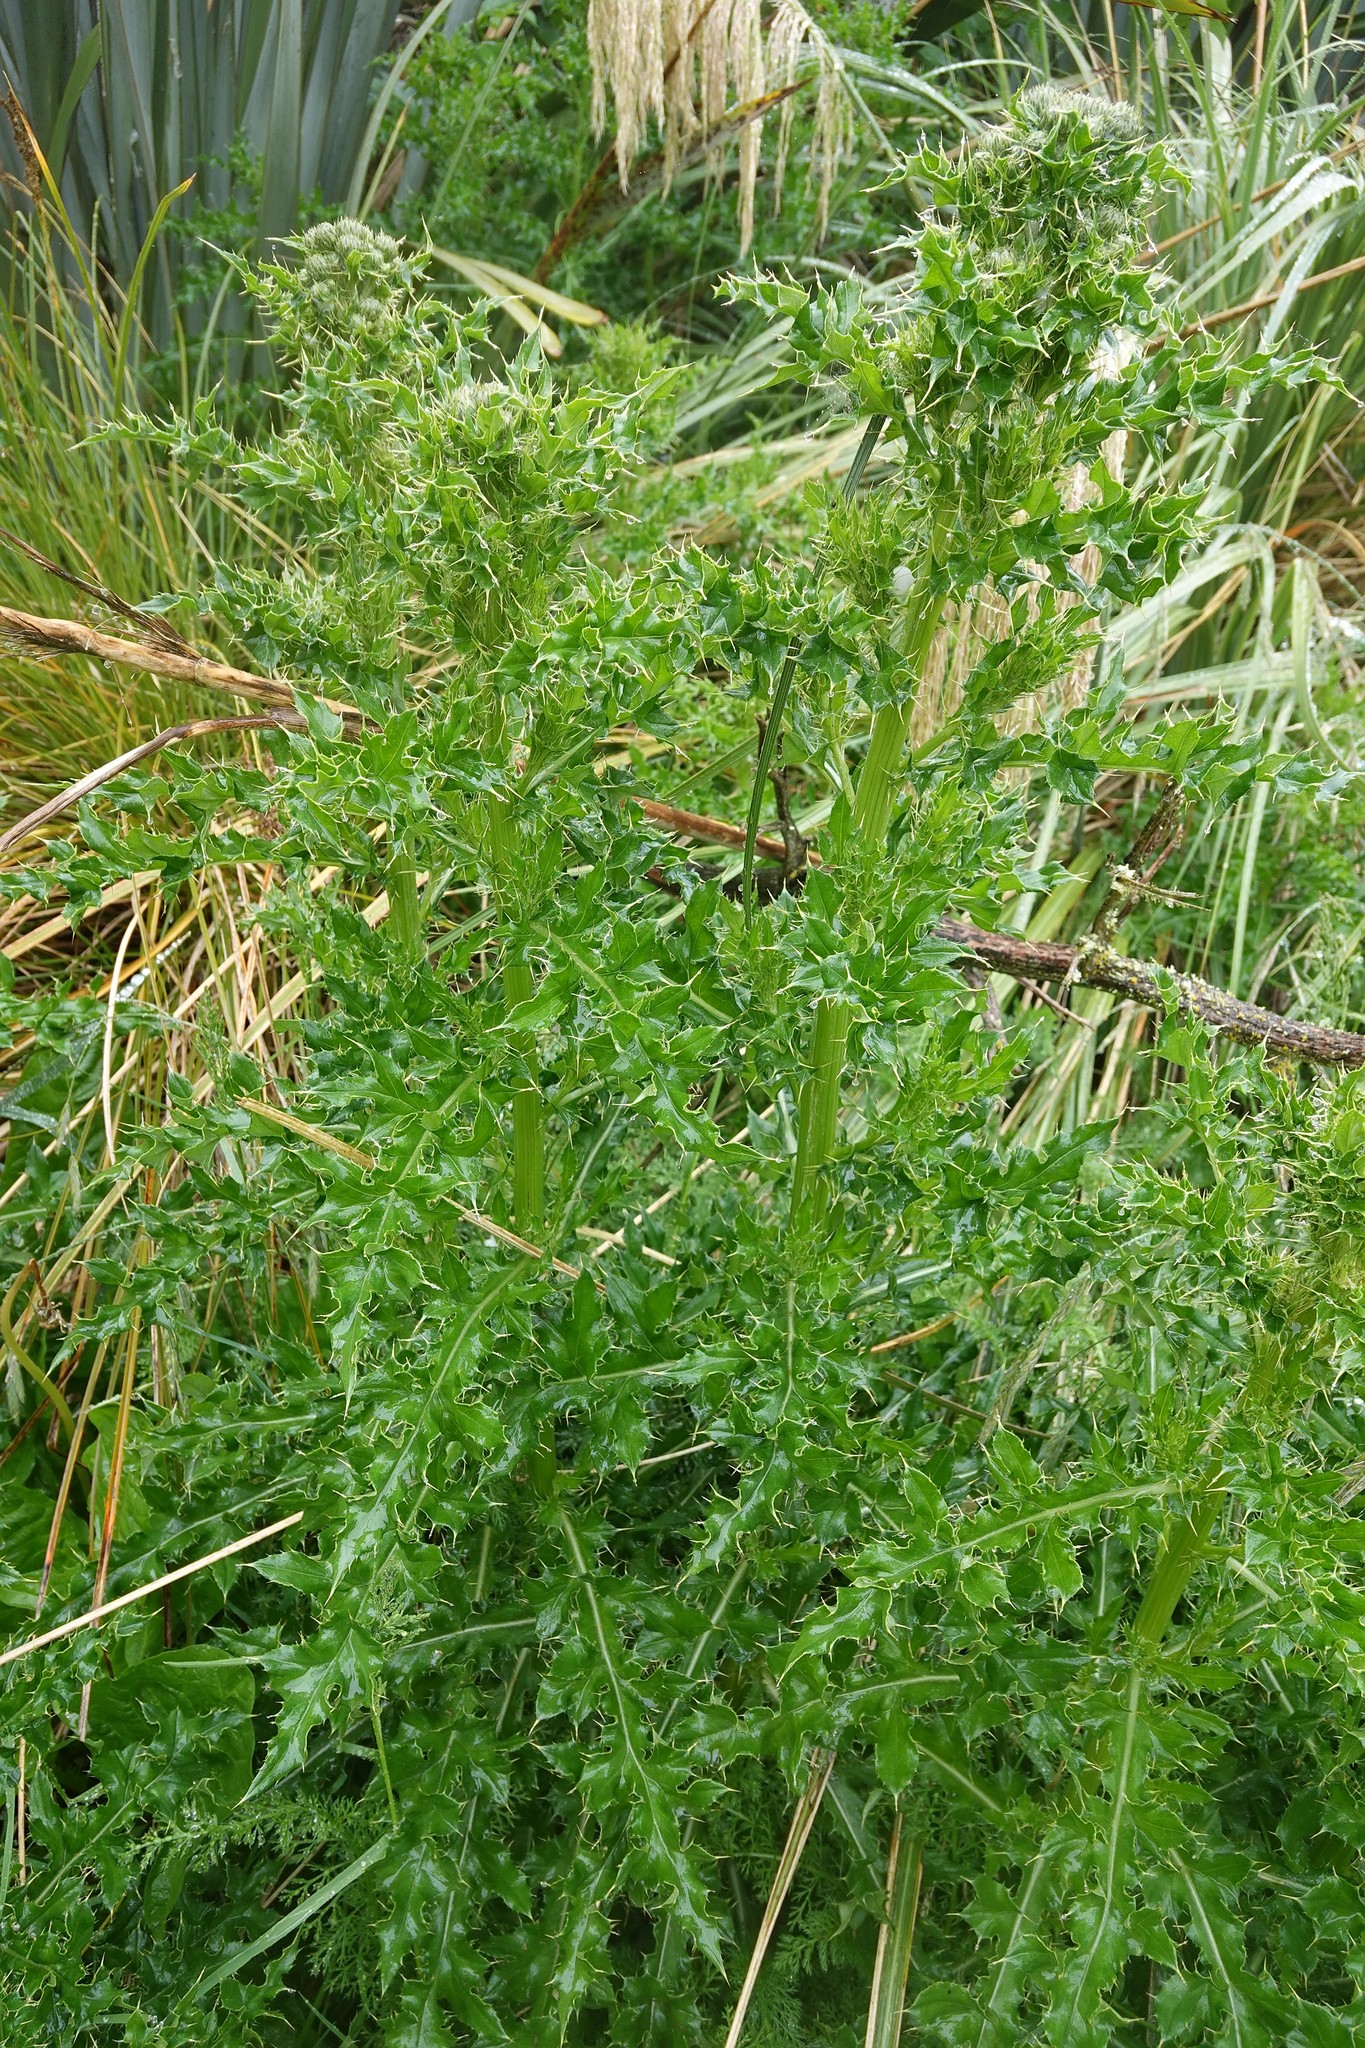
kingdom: Plantae
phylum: Tracheophyta
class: Magnoliopsida
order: Asterales
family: Asteraceae
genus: Cirsium
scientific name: Cirsium arvense
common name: Creeping thistle
